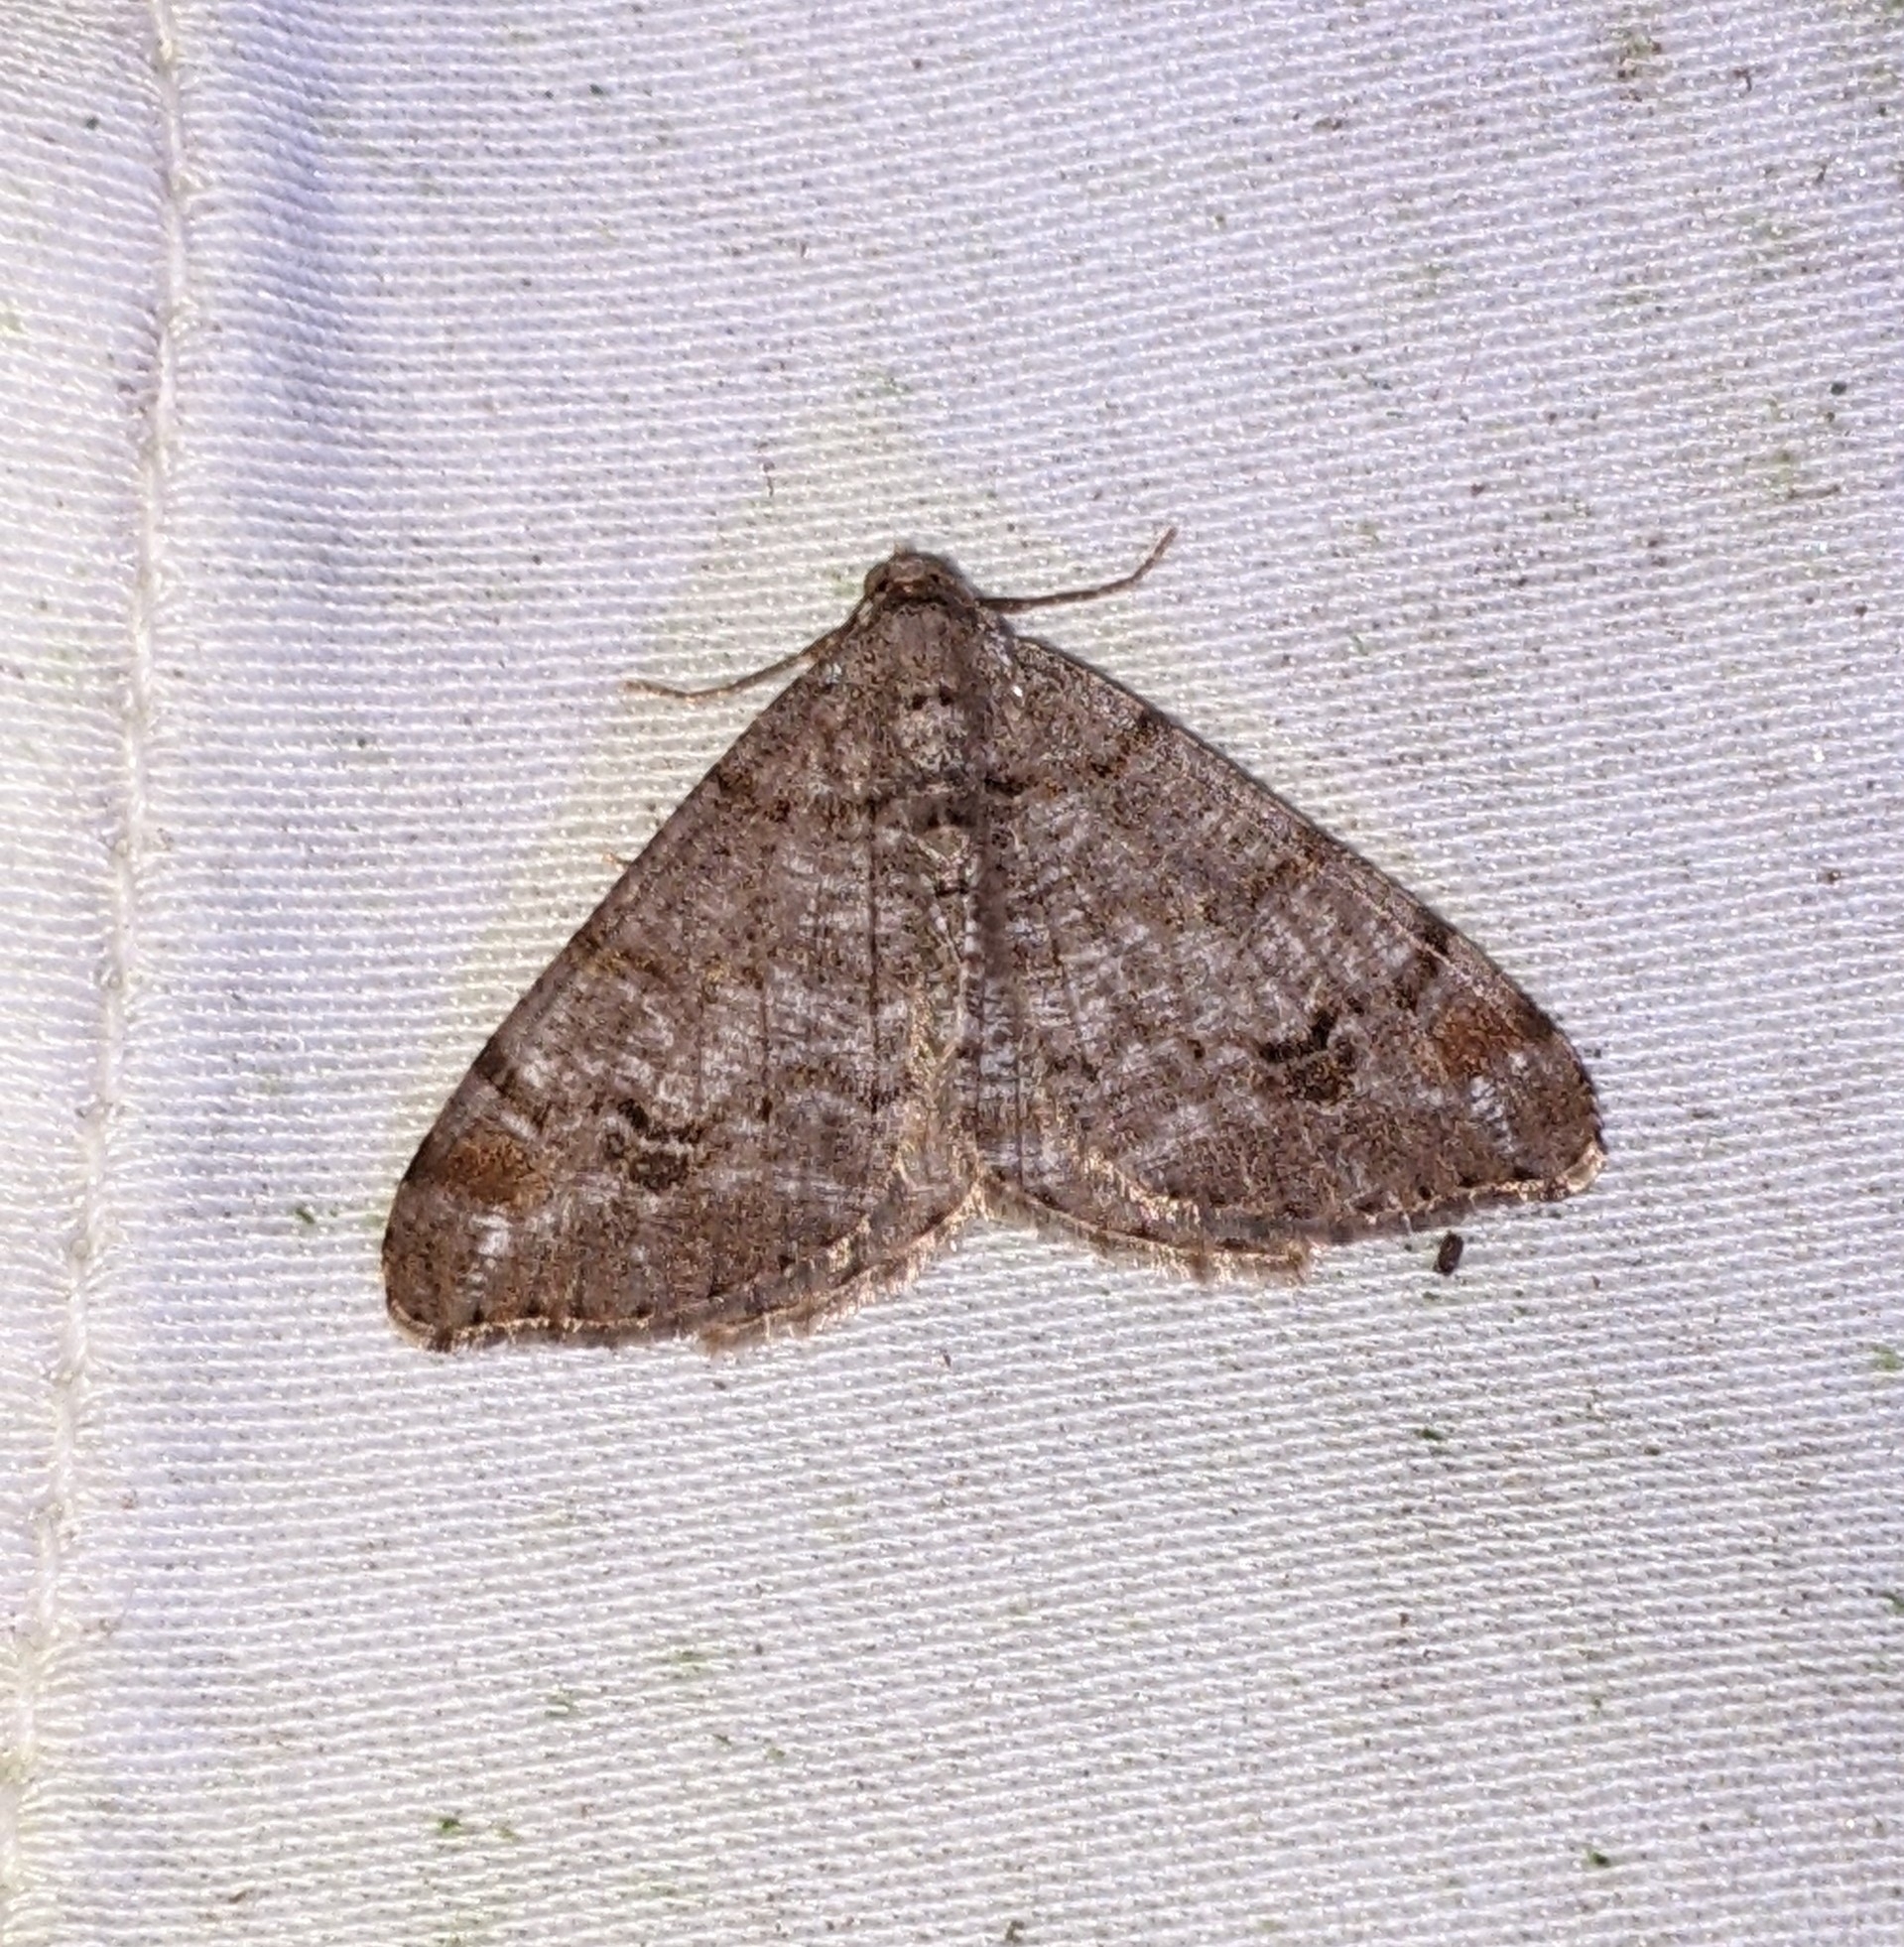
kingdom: Animalia
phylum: Arthropoda
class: Insecta
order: Lepidoptera
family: Geometridae
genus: Macaria
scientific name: Macaria signaria
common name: Dusky peacock
